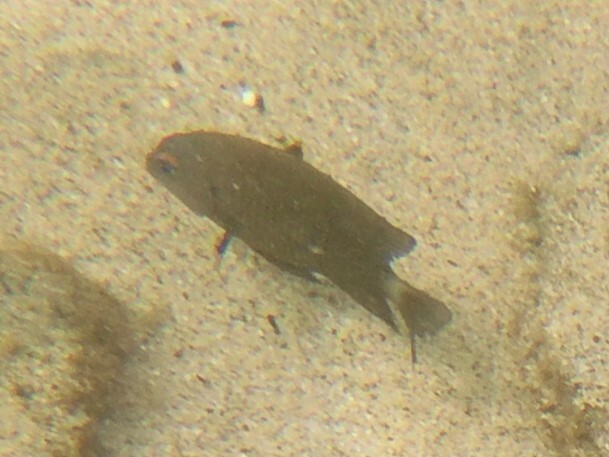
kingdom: Animalia
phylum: Chordata
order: Perciformes
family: Pomacentridae
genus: Stegastes
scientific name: Stegastes beebei
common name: Galapagos ringtail damselfish
